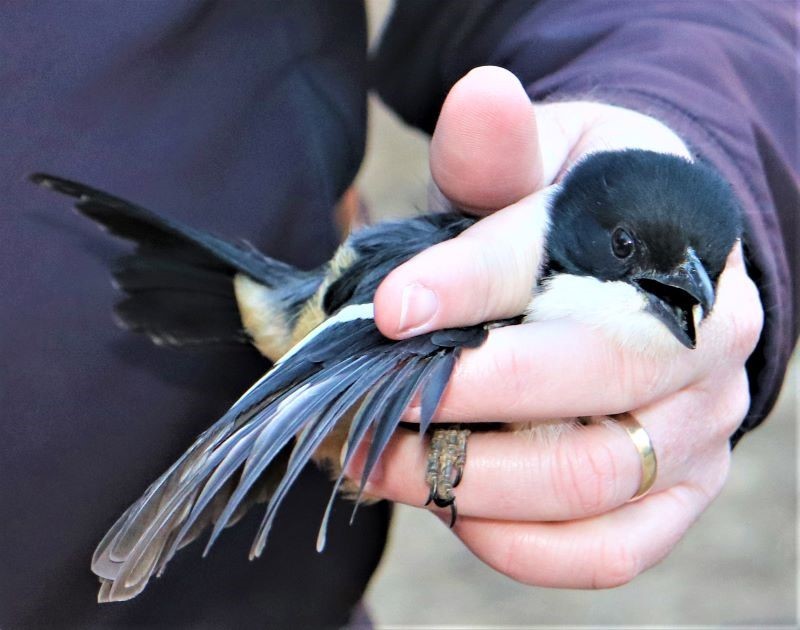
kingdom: Animalia
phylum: Chordata
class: Aves
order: Passeriformes
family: Malaconotidae
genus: Laniarius
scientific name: Laniarius ferrugineus
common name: Southern boubou
